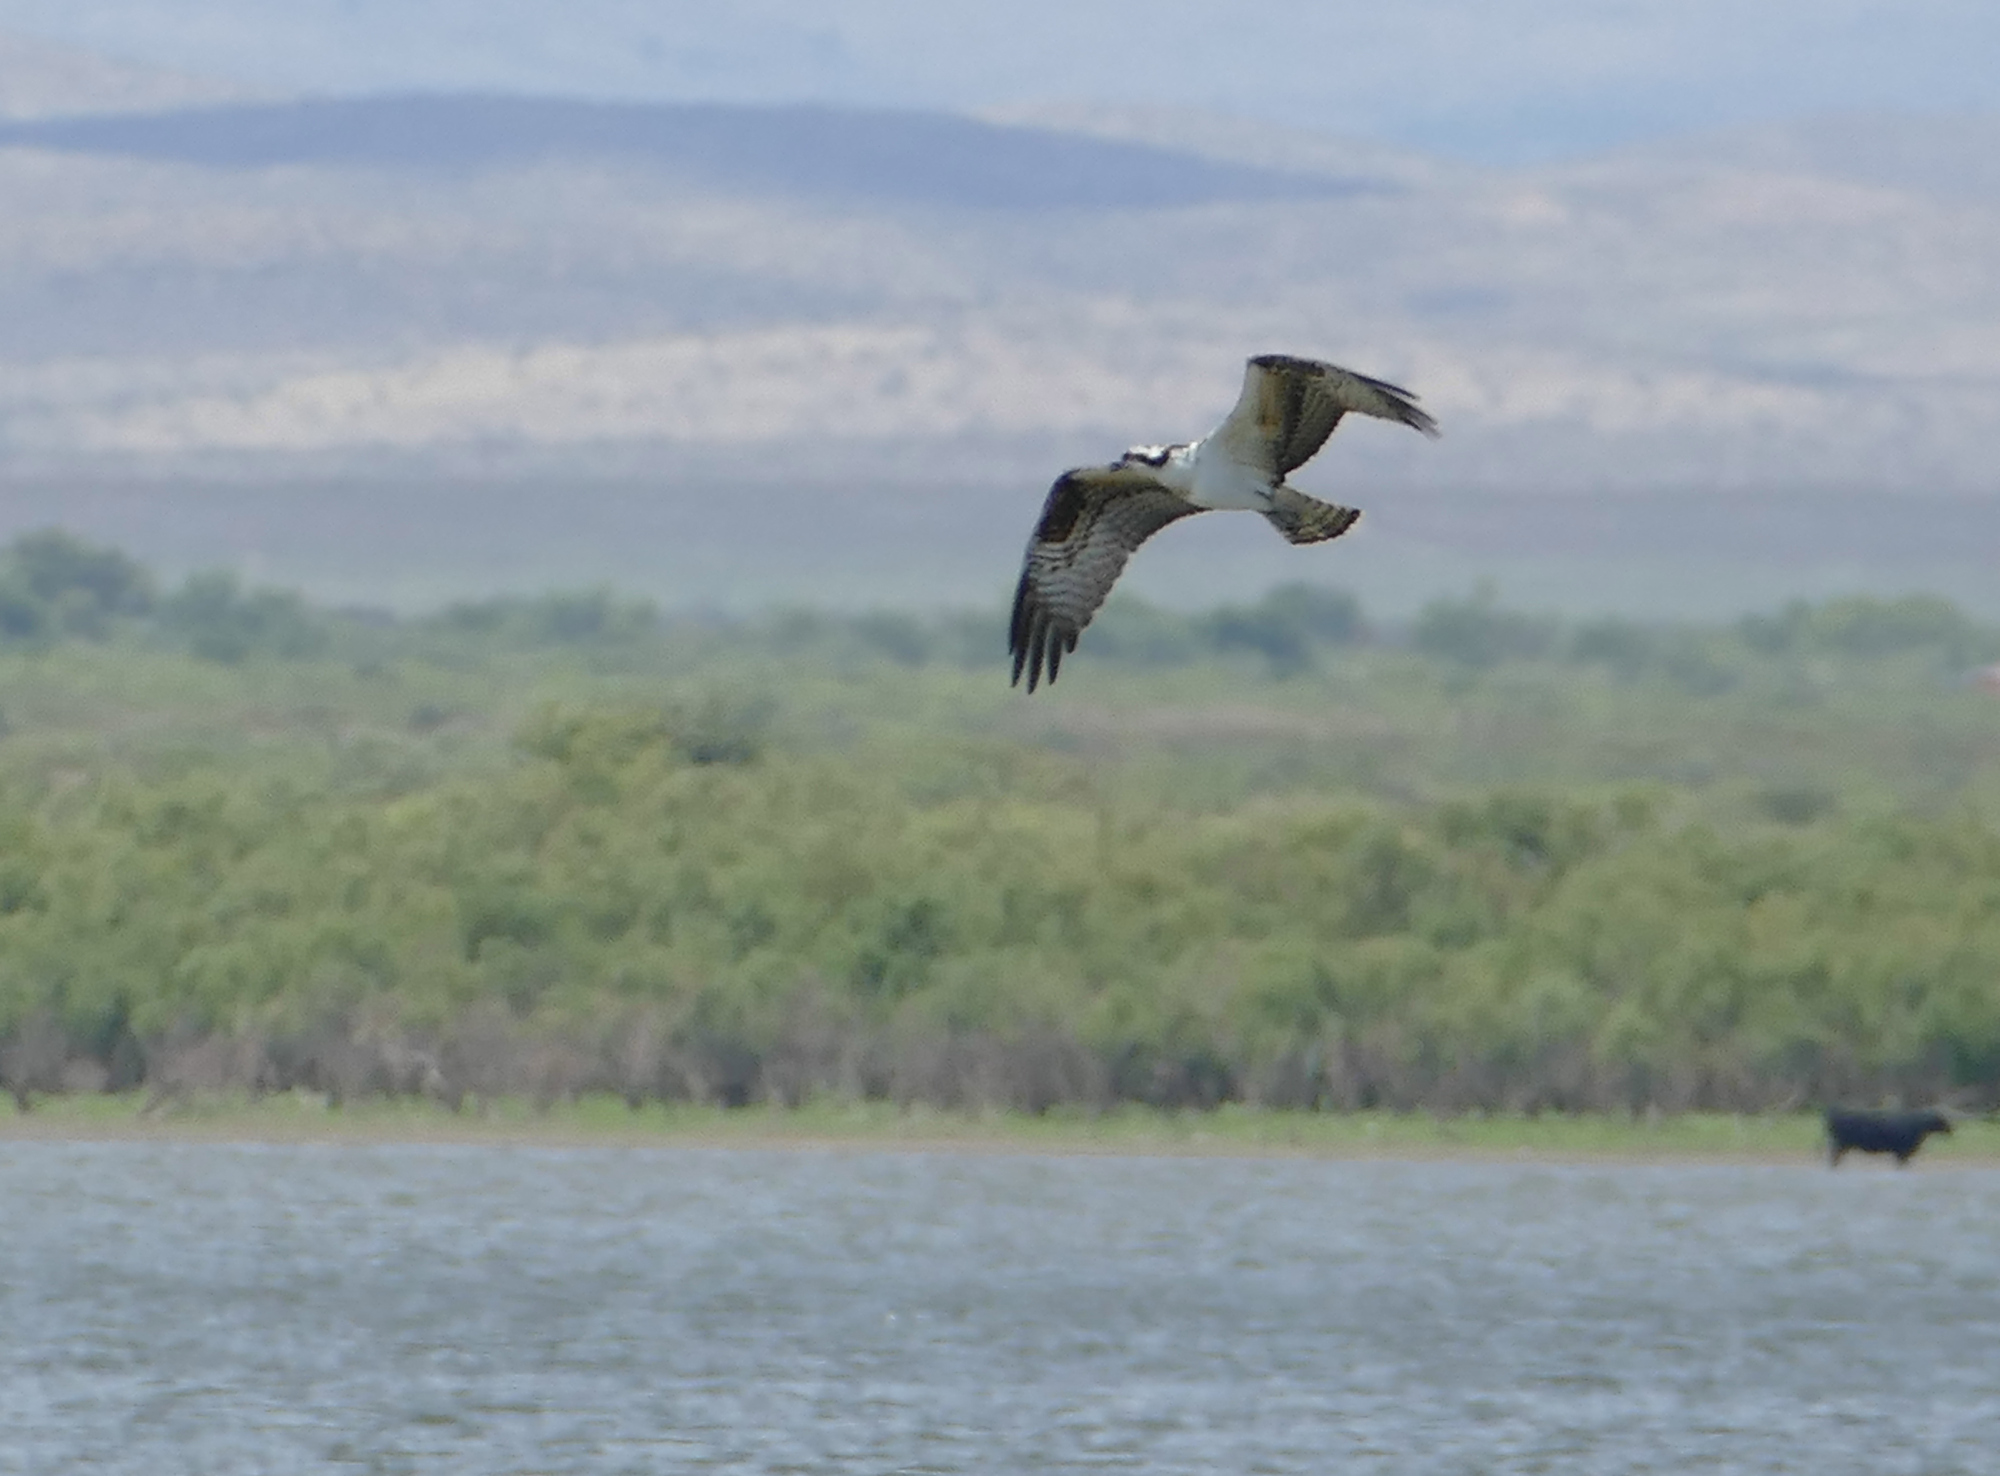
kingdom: Animalia
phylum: Chordata
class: Aves
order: Accipitriformes
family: Pandionidae
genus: Pandion
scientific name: Pandion haliaetus
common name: Osprey
